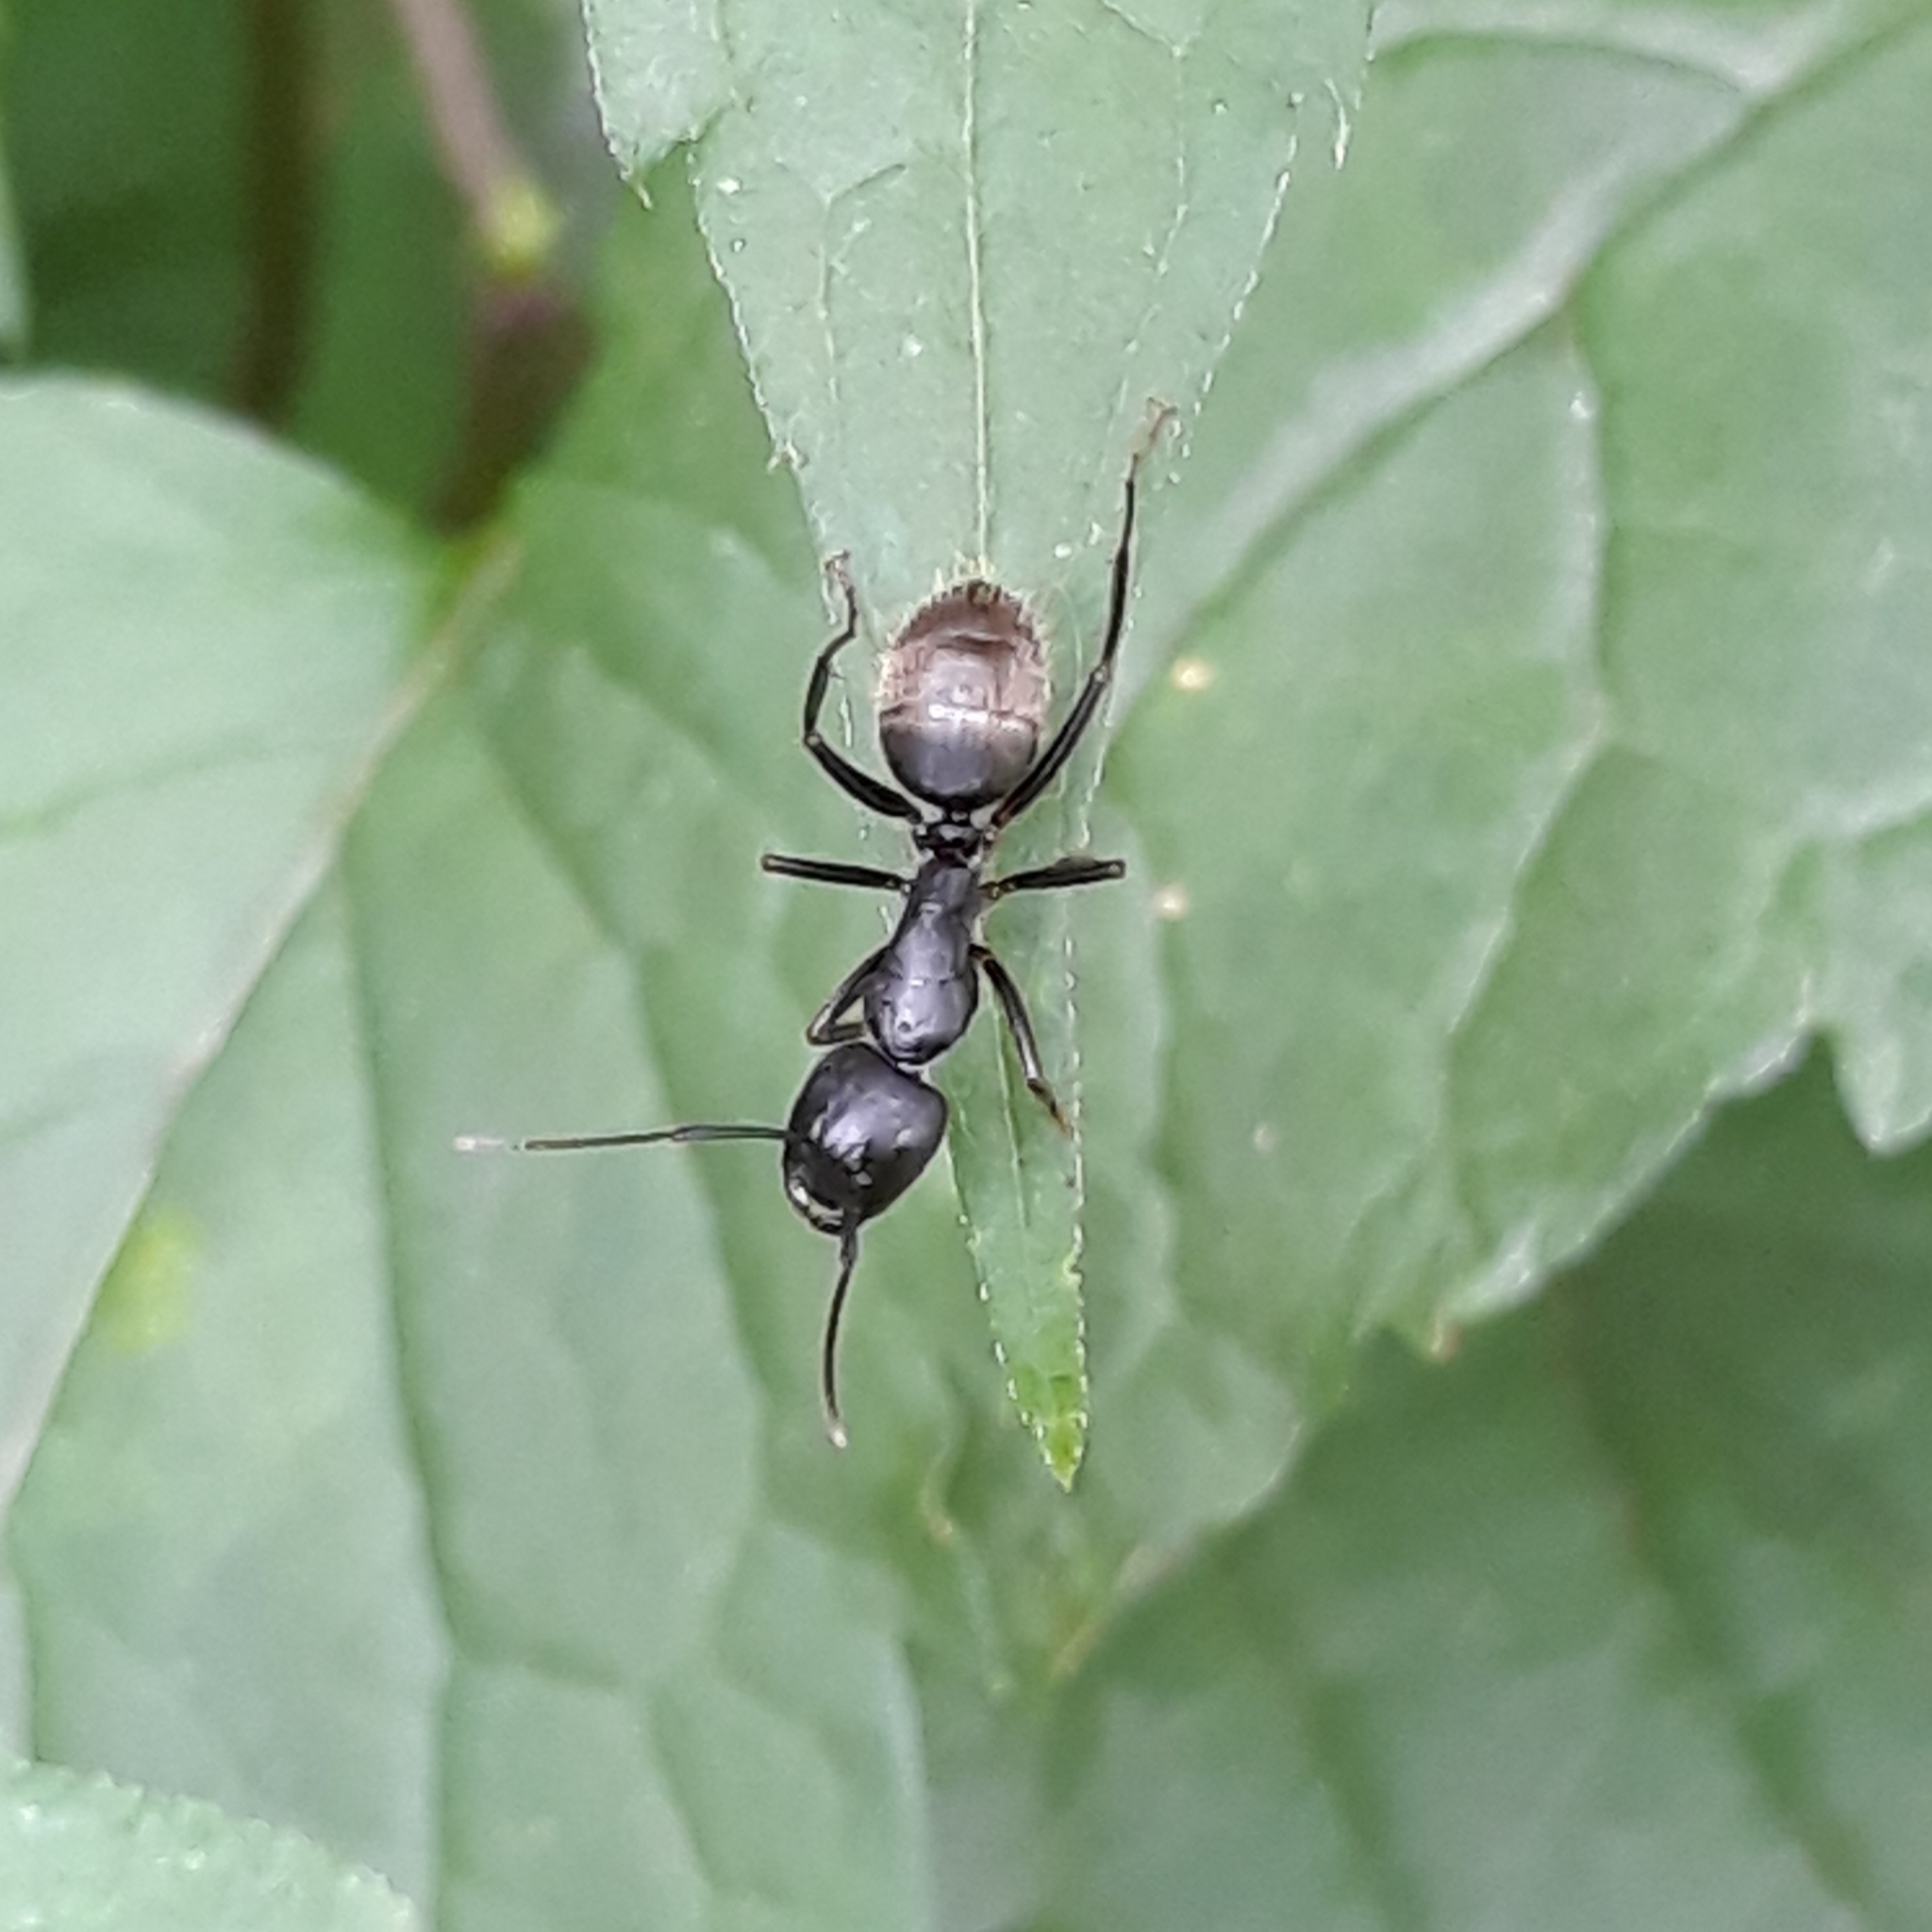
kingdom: Animalia
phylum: Arthropoda
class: Insecta
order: Hymenoptera
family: Formicidae
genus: Camponotus
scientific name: Camponotus pennsylvanicus
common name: Black carpenter ant
